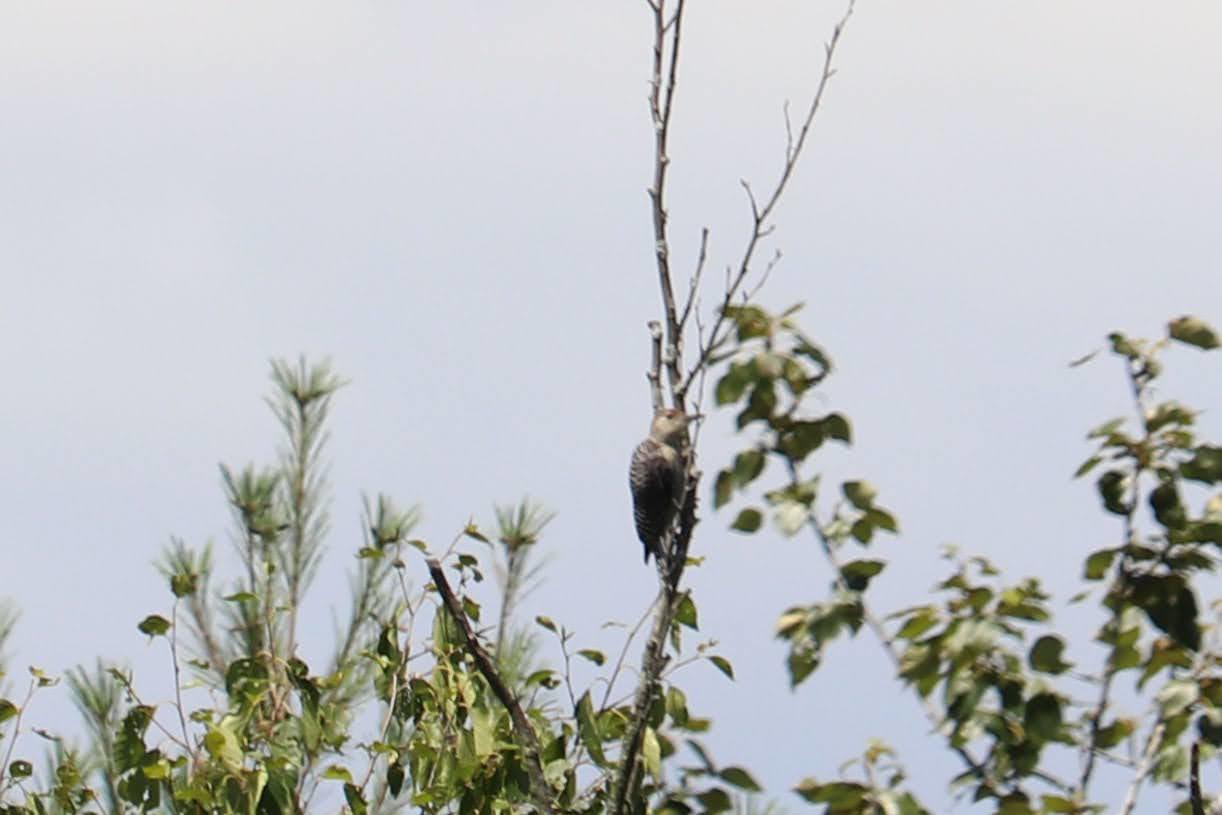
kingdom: Animalia
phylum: Chordata
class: Aves
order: Piciformes
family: Picidae
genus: Melanerpes
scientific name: Melanerpes carolinus
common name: Red-bellied woodpecker
